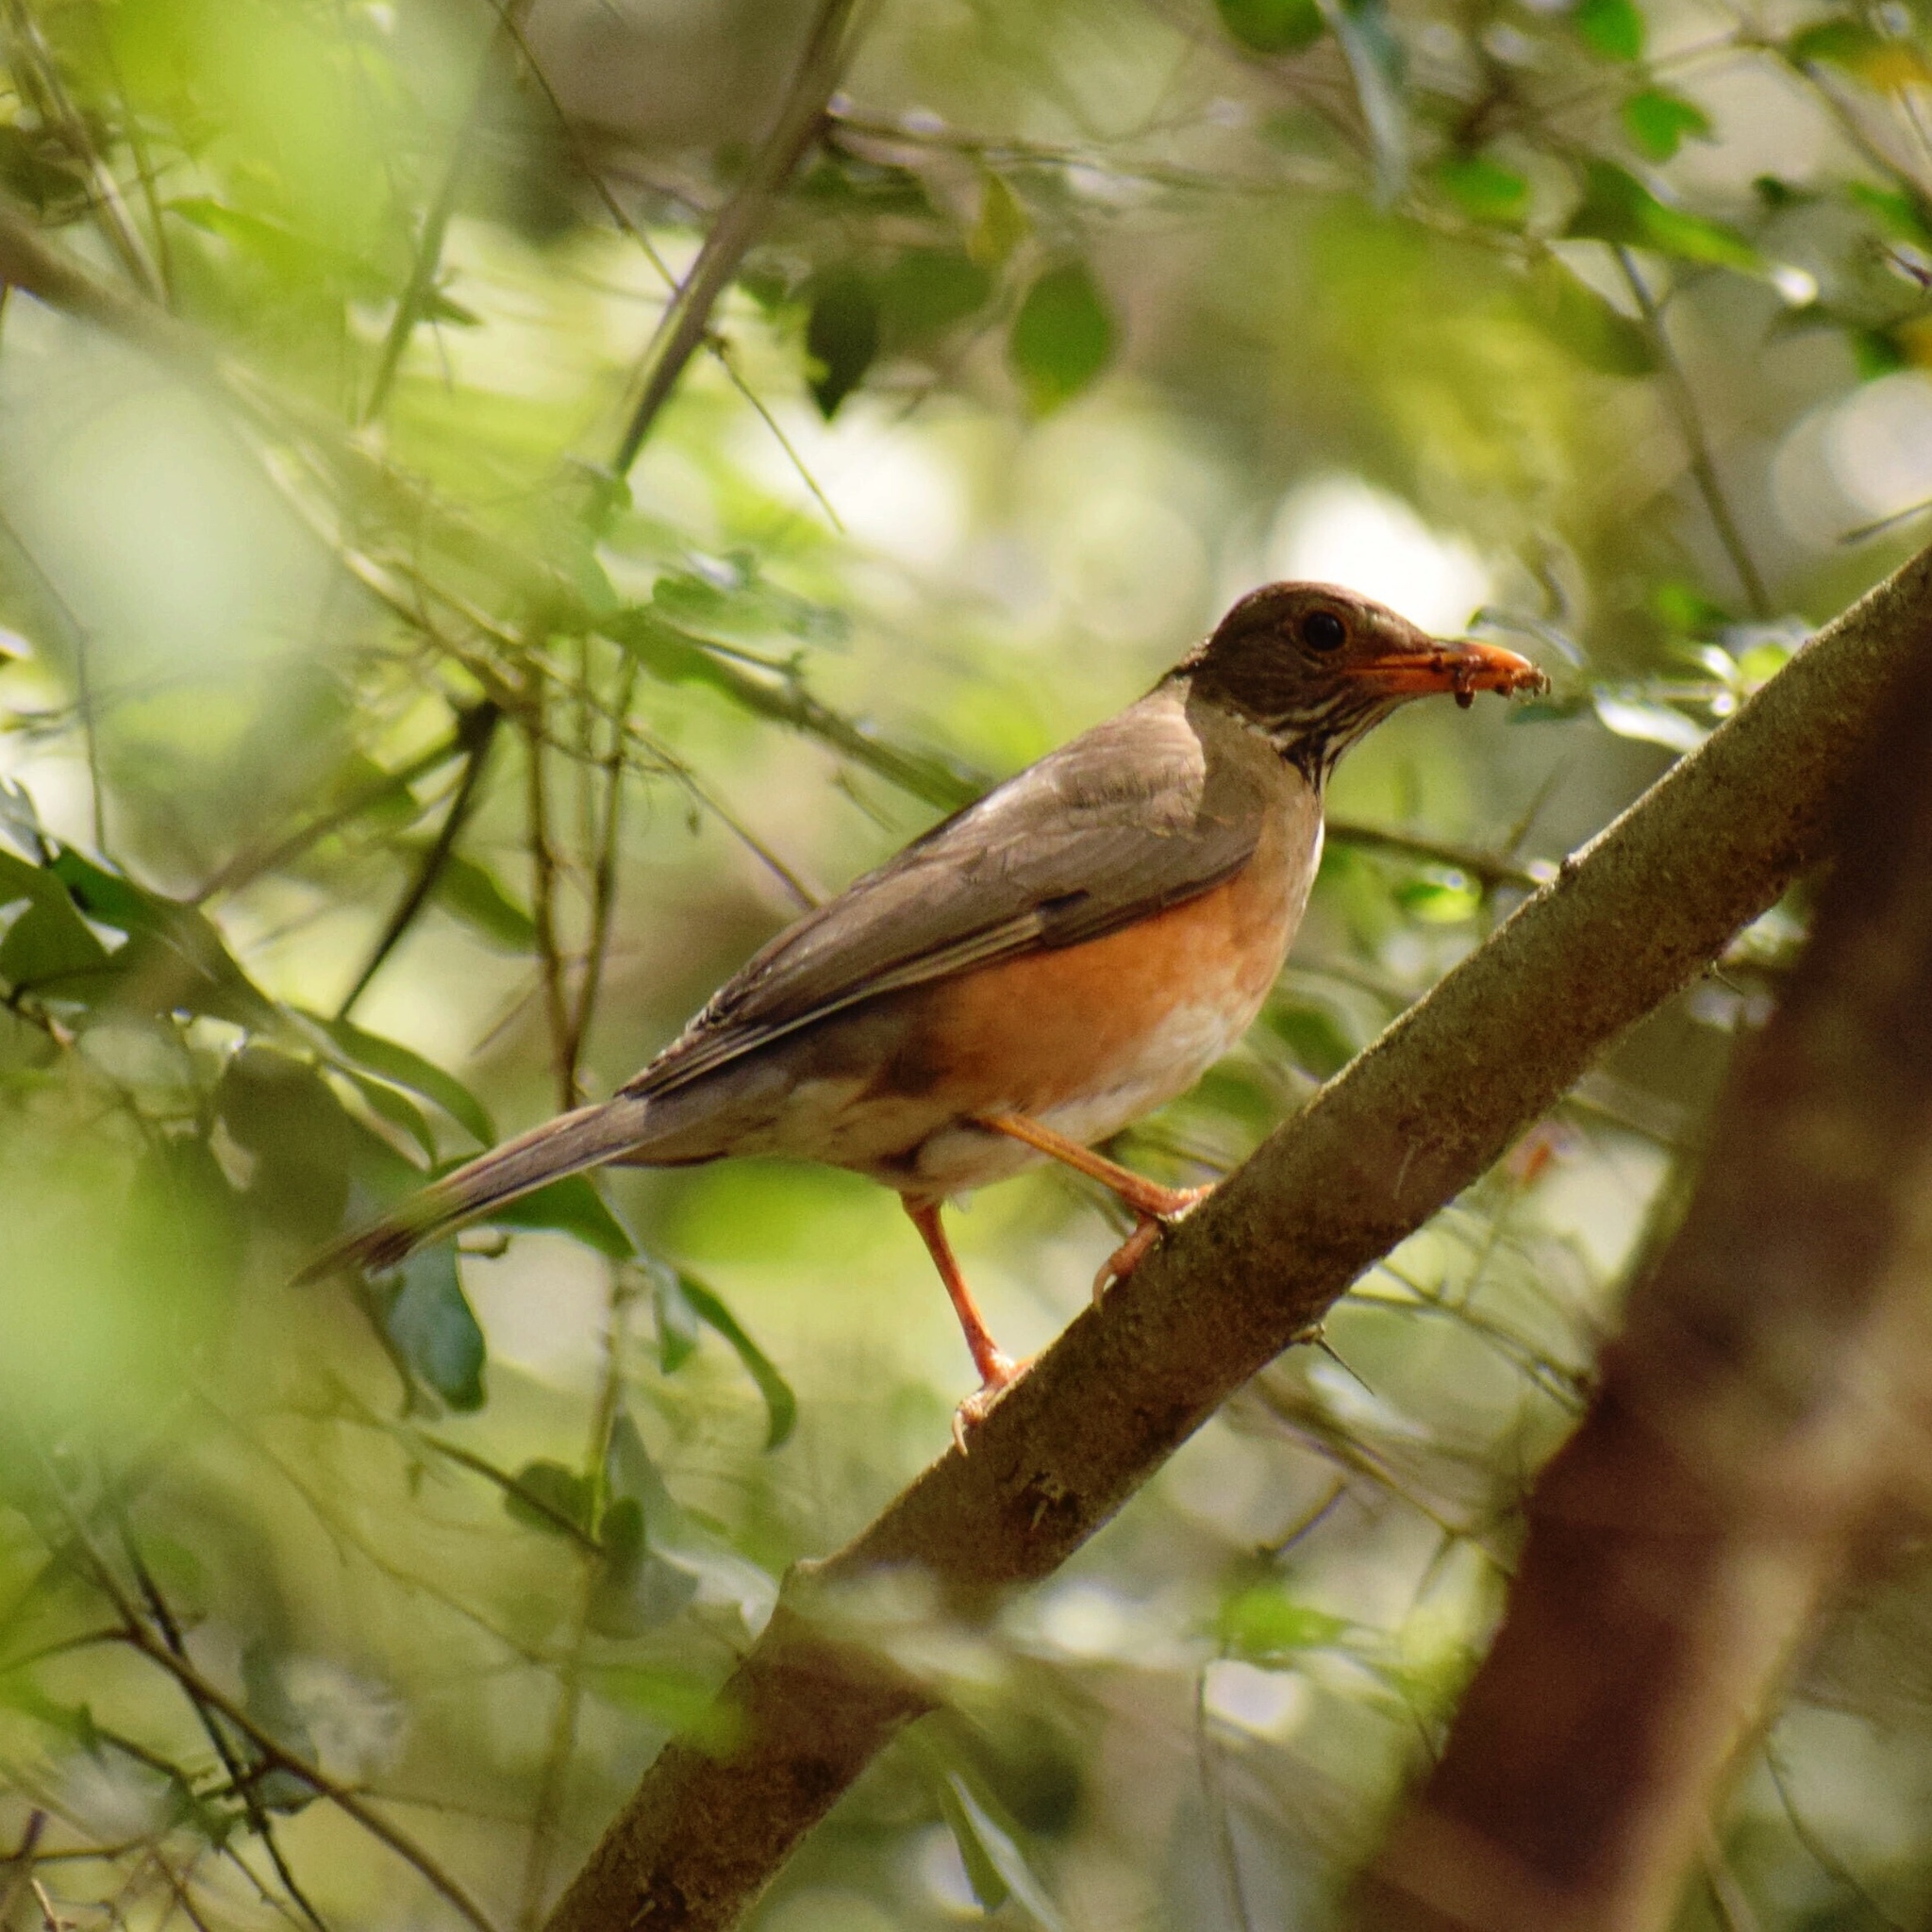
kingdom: Animalia
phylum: Chordata
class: Aves
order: Passeriformes
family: Turdidae
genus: Turdus
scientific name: Turdus libonyana
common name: Kurrichane thrush
